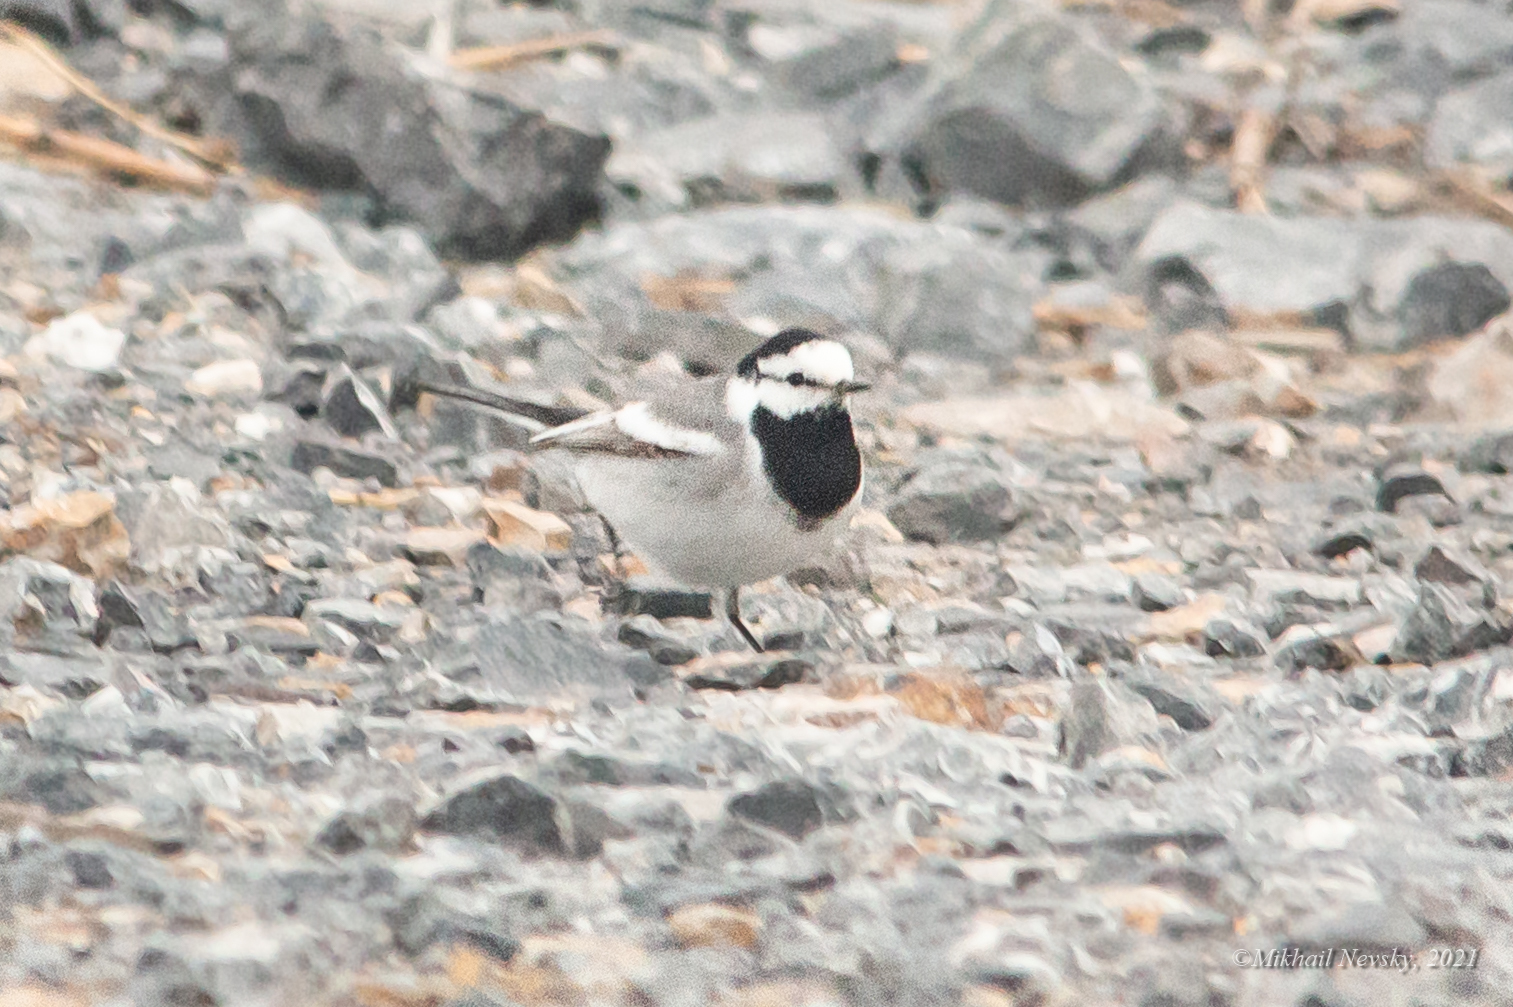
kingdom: Animalia
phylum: Chordata
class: Aves
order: Passeriformes
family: Motacillidae
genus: Motacilla
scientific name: Motacilla alba
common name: White wagtail
